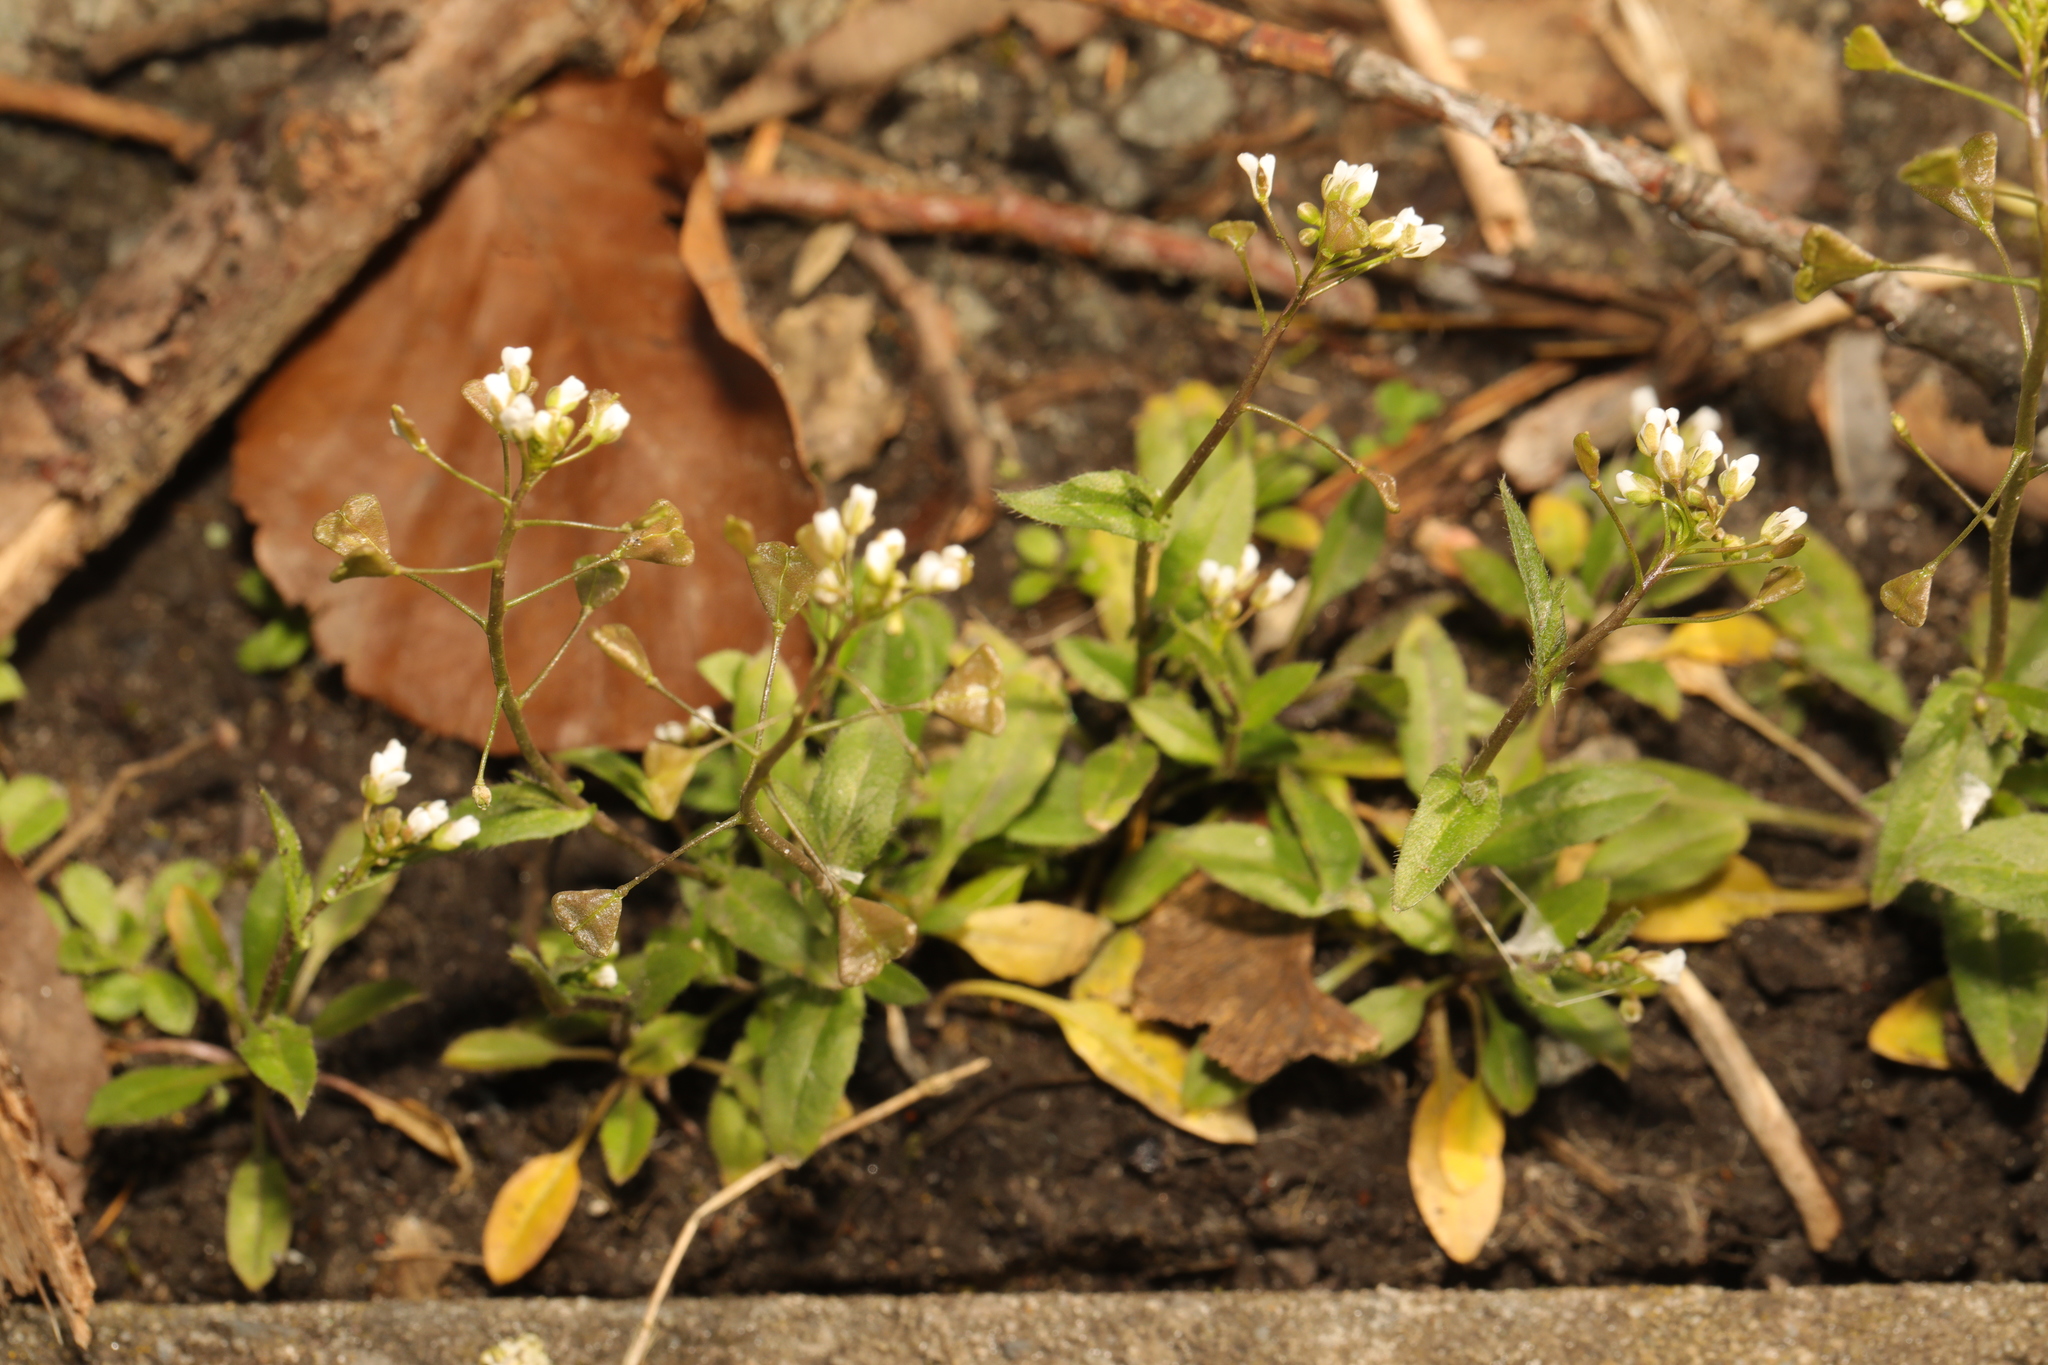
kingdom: Plantae
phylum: Tracheophyta
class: Magnoliopsida
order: Brassicales
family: Brassicaceae
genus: Capsella
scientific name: Capsella bursa-pastoris
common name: Shepherd's purse
